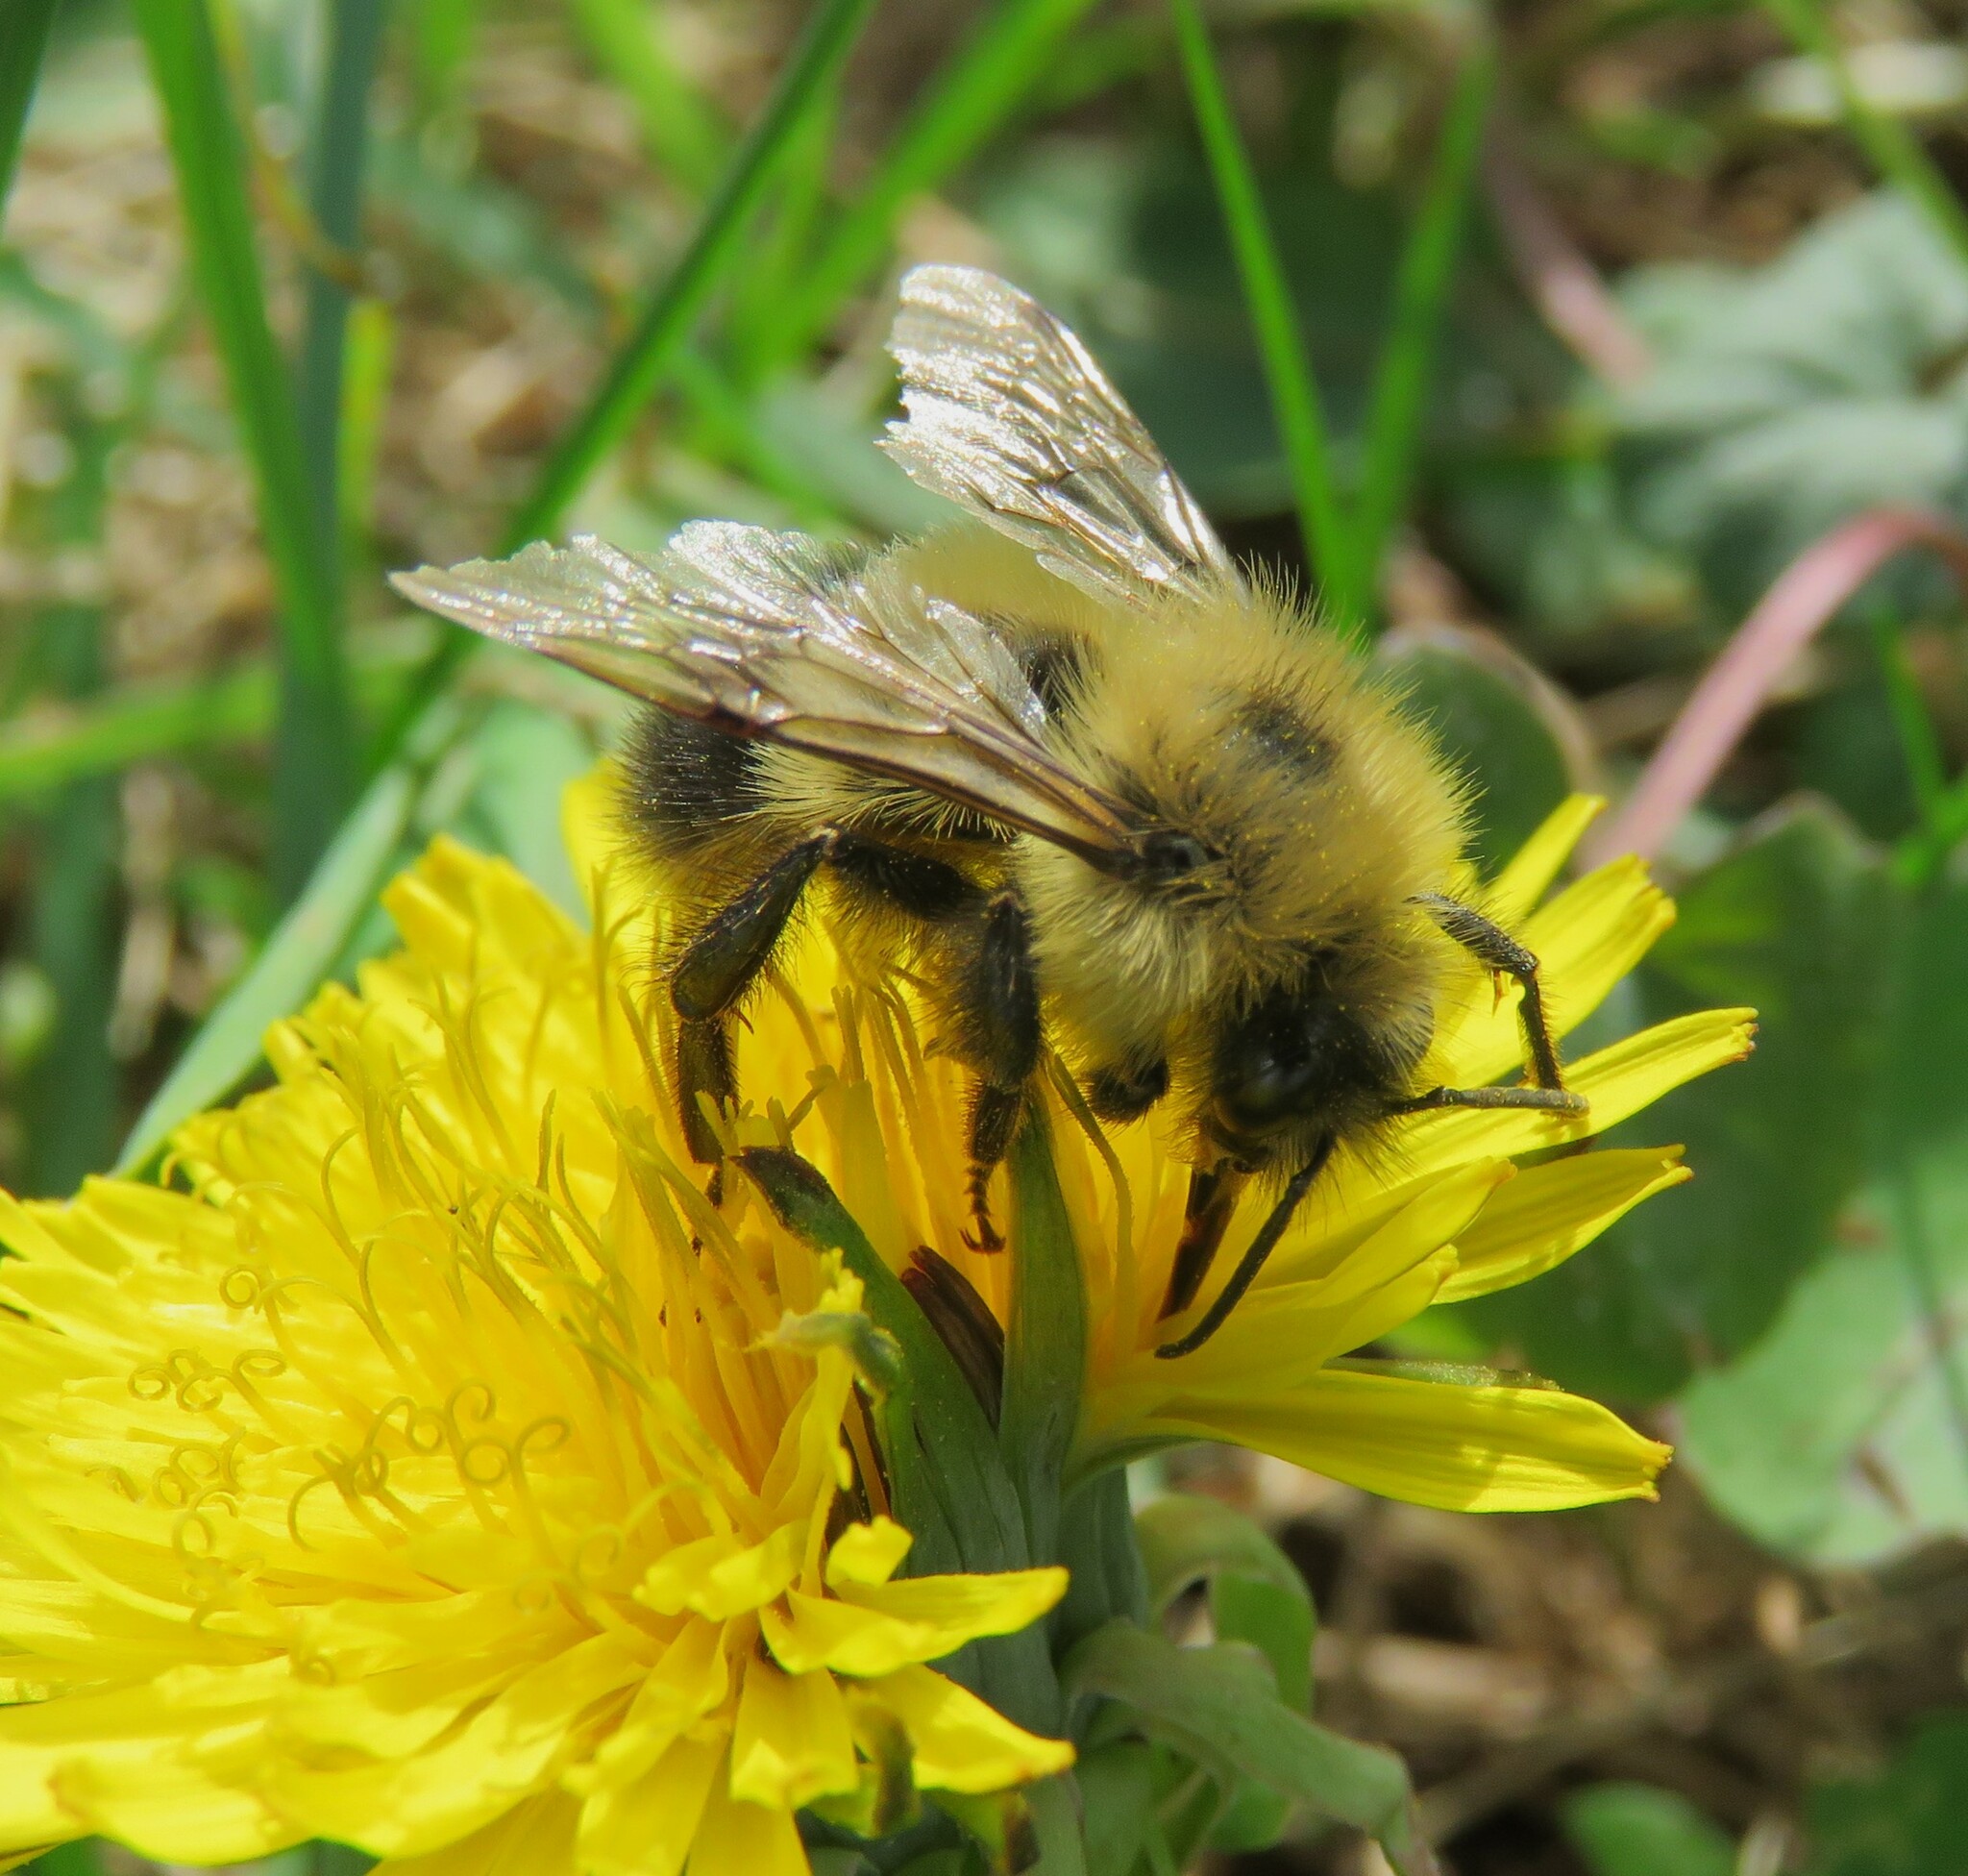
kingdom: Animalia
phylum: Arthropoda
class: Insecta
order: Hymenoptera
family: Apidae
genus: Bombus
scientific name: Bombus vagans
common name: Half-black bumble bee
